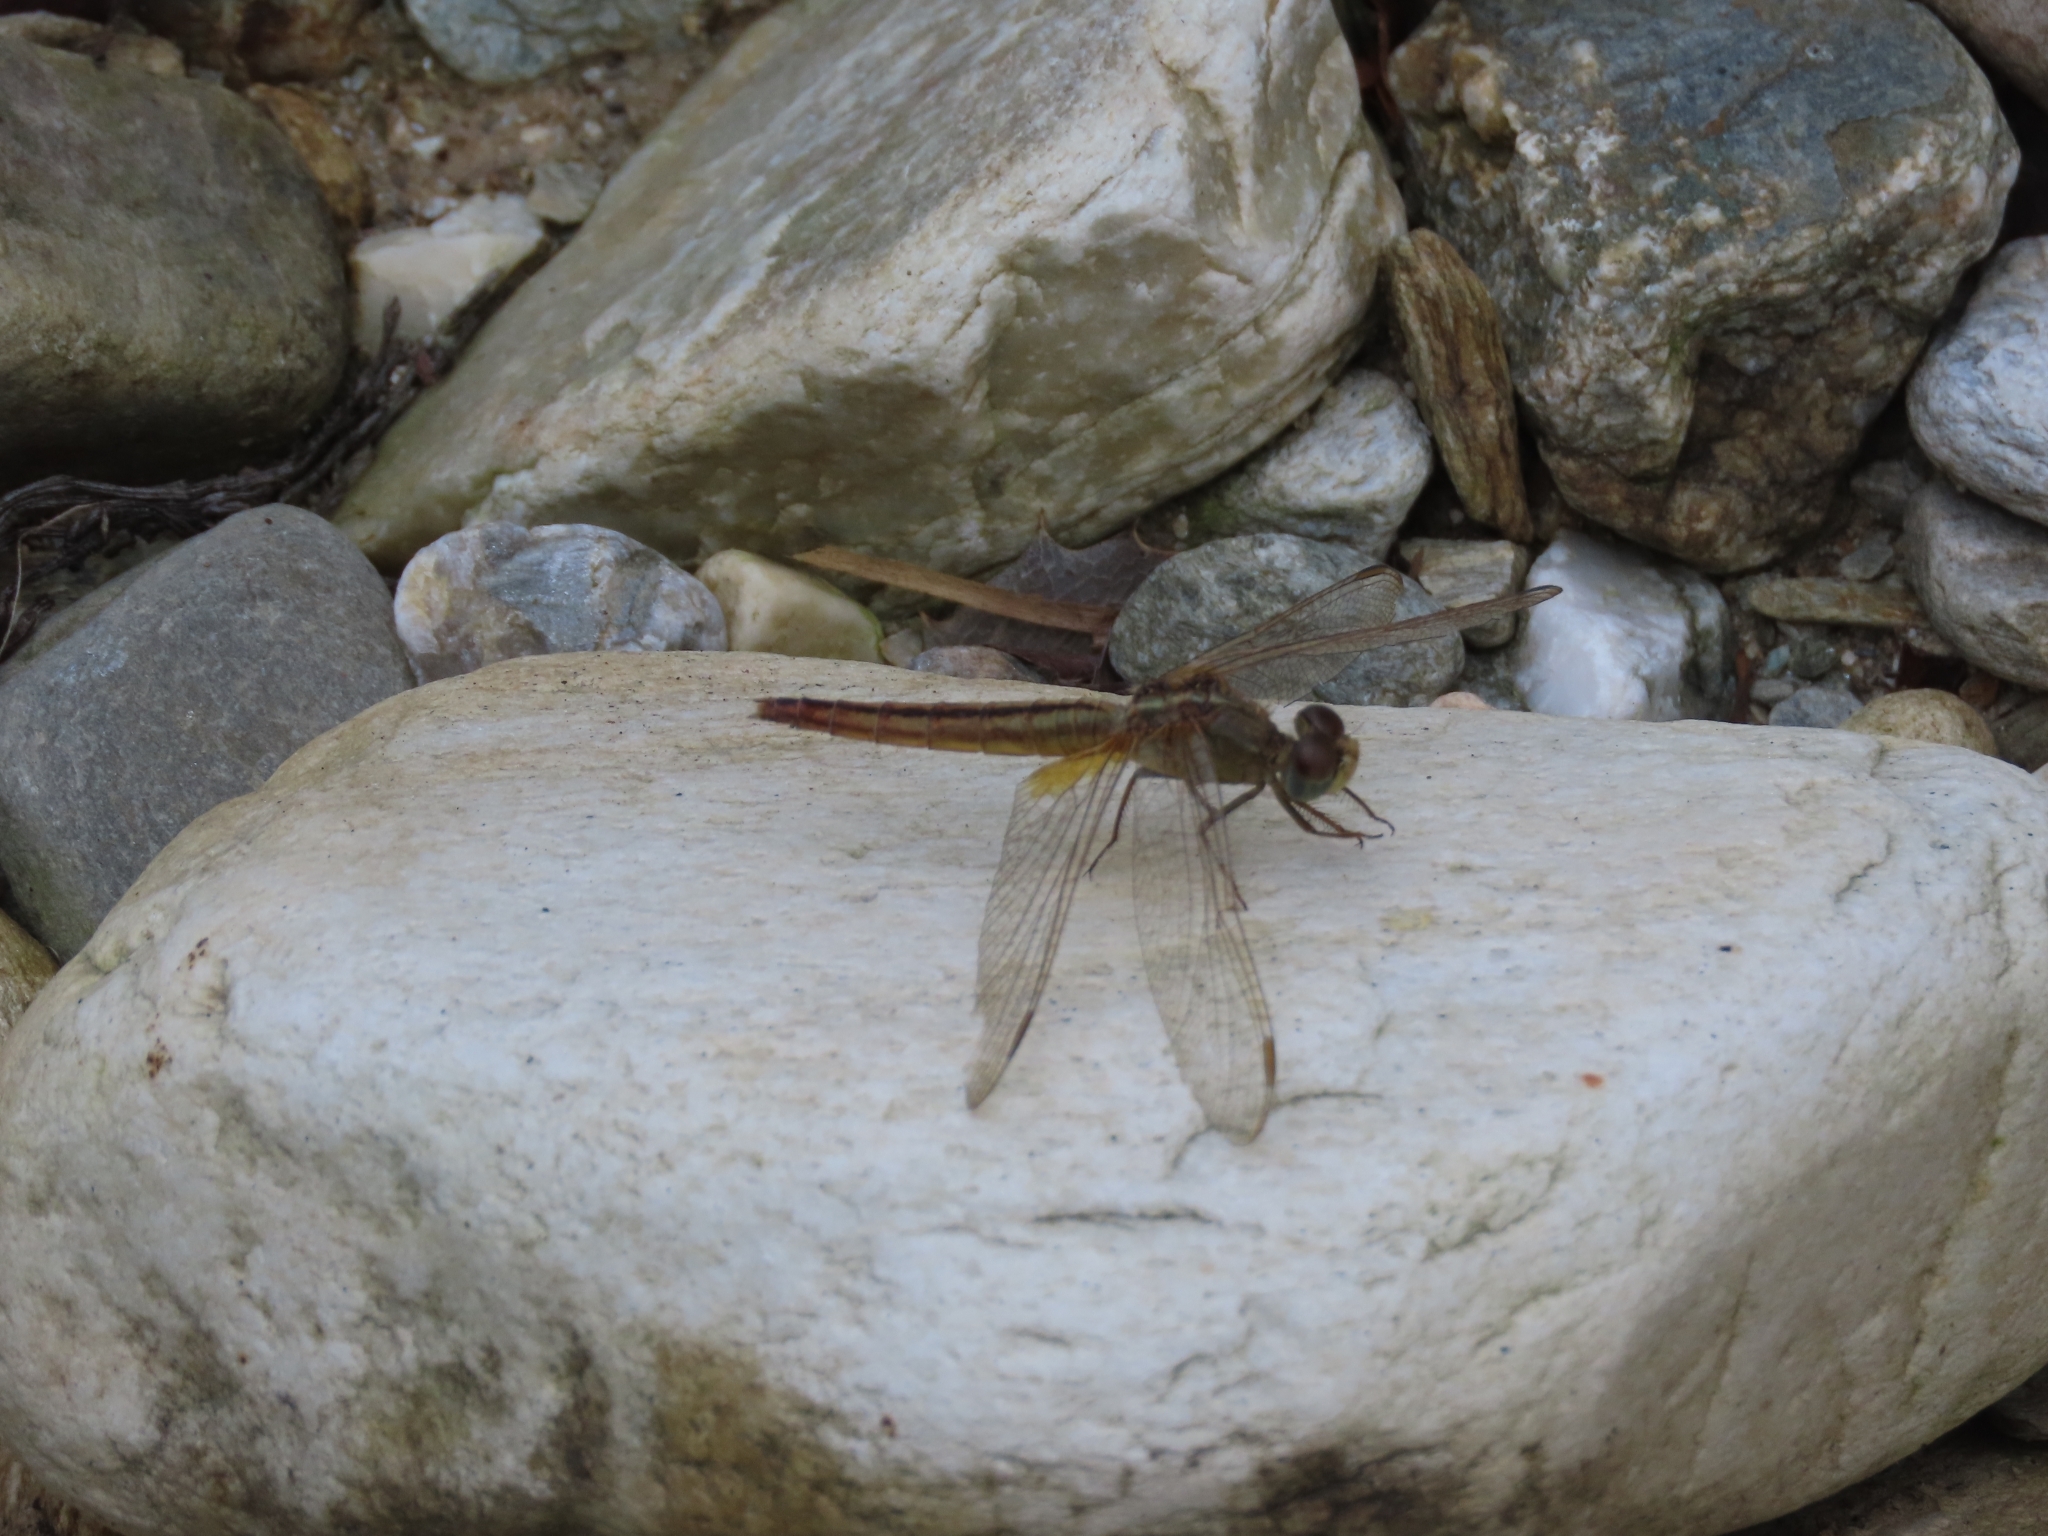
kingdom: Animalia
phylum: Arthropoda
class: Insecta
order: Odonata
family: Libellulidae
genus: Crocothemis
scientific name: Crocothemis servilia
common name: Scarlet skimmer
